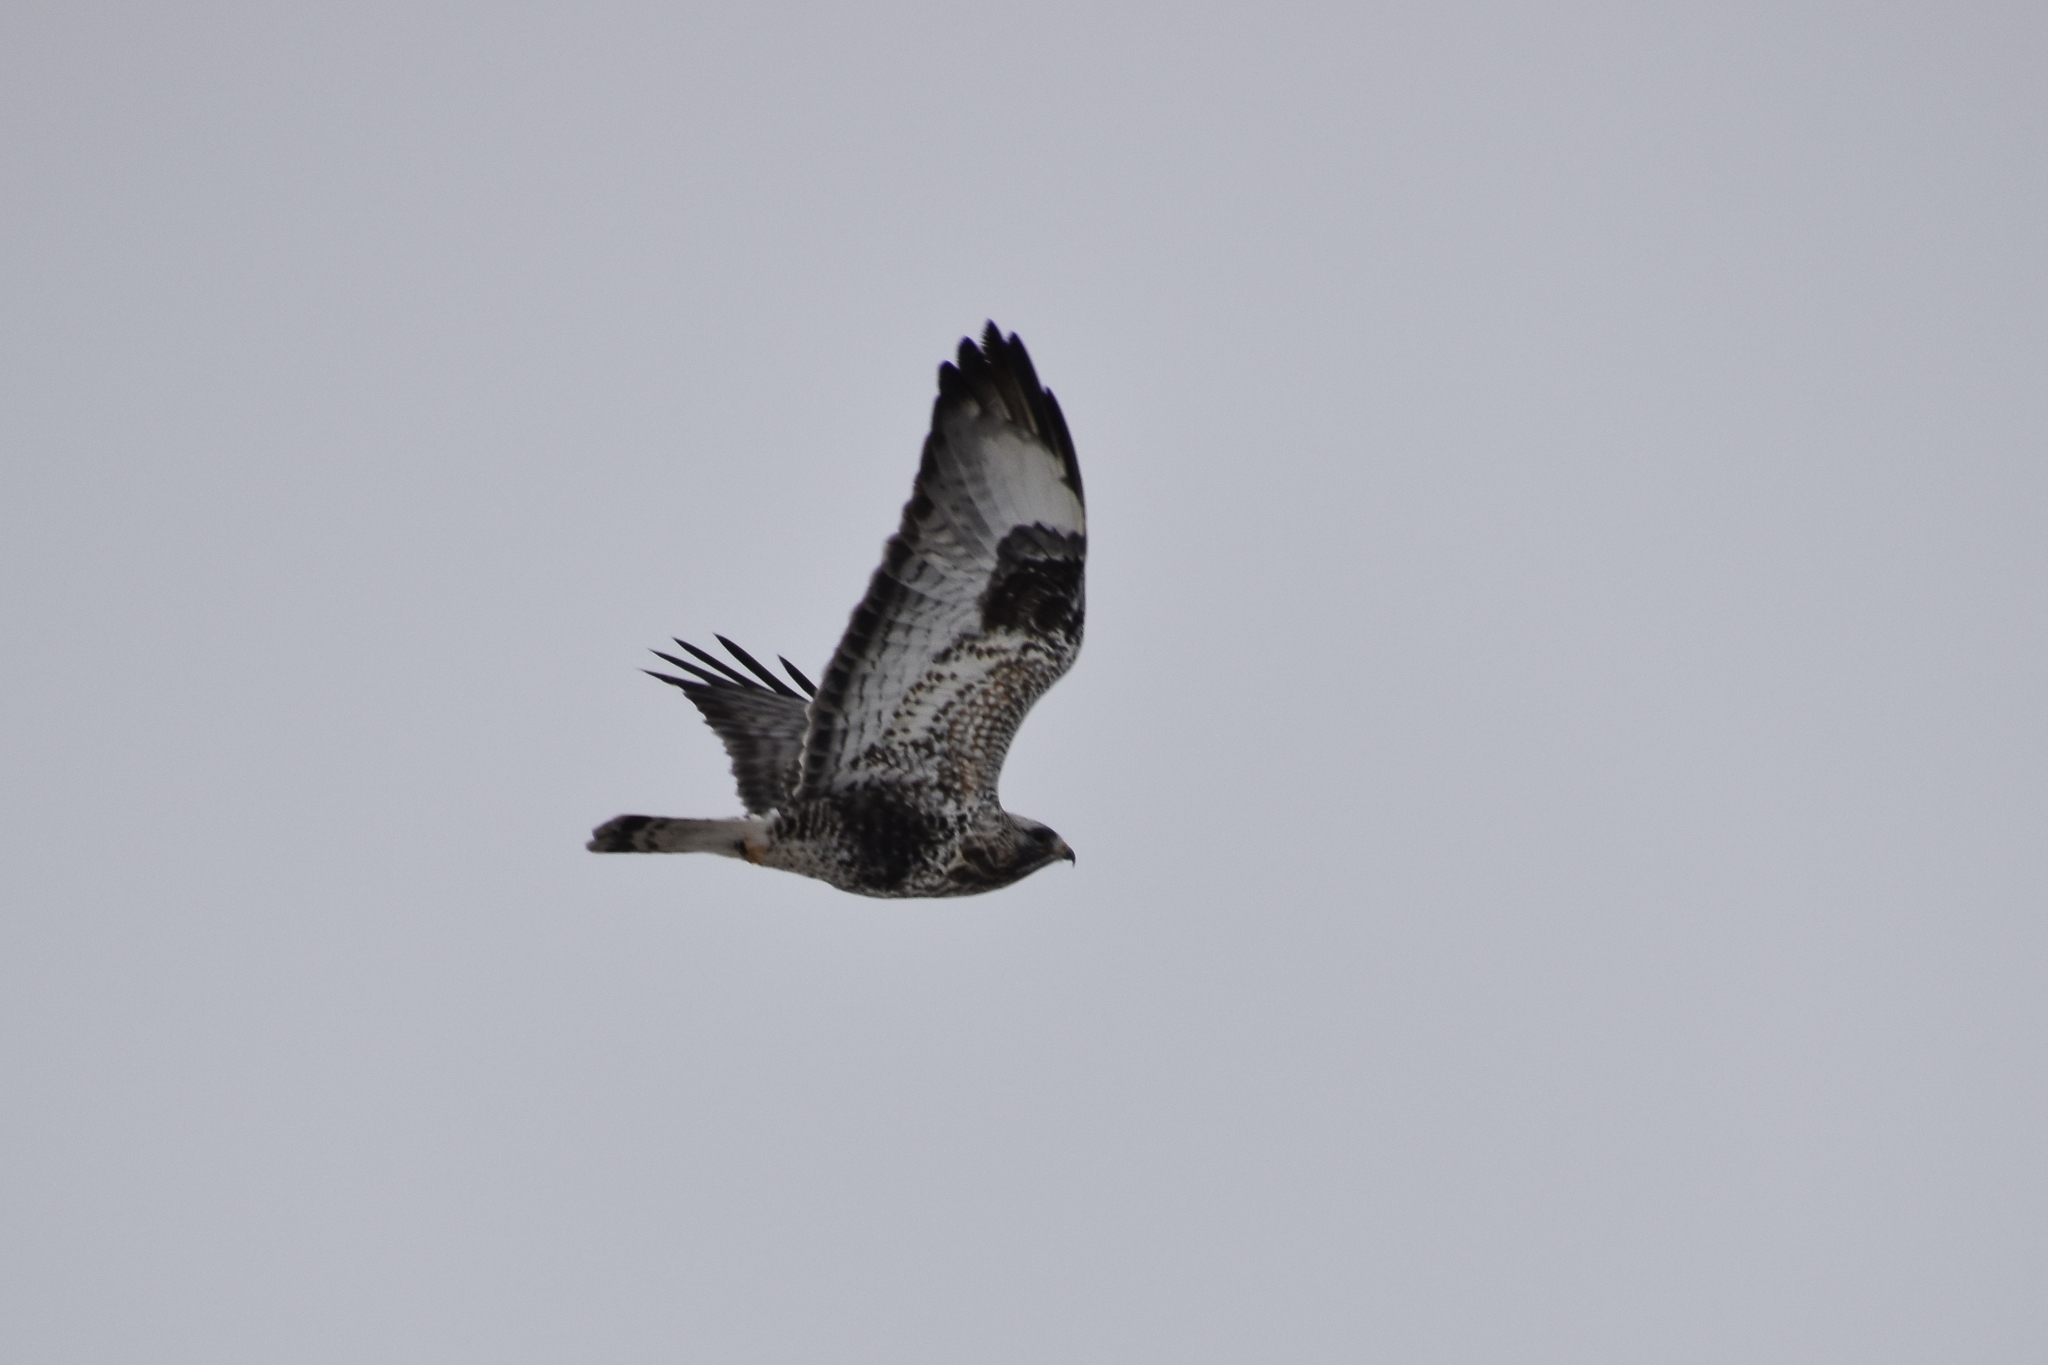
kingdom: Animalia
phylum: Chordata
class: Aves
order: Accipitriformes
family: Accipitridae
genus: Buteo
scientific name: Buteo lagopus
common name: Rough-legged buzzard
